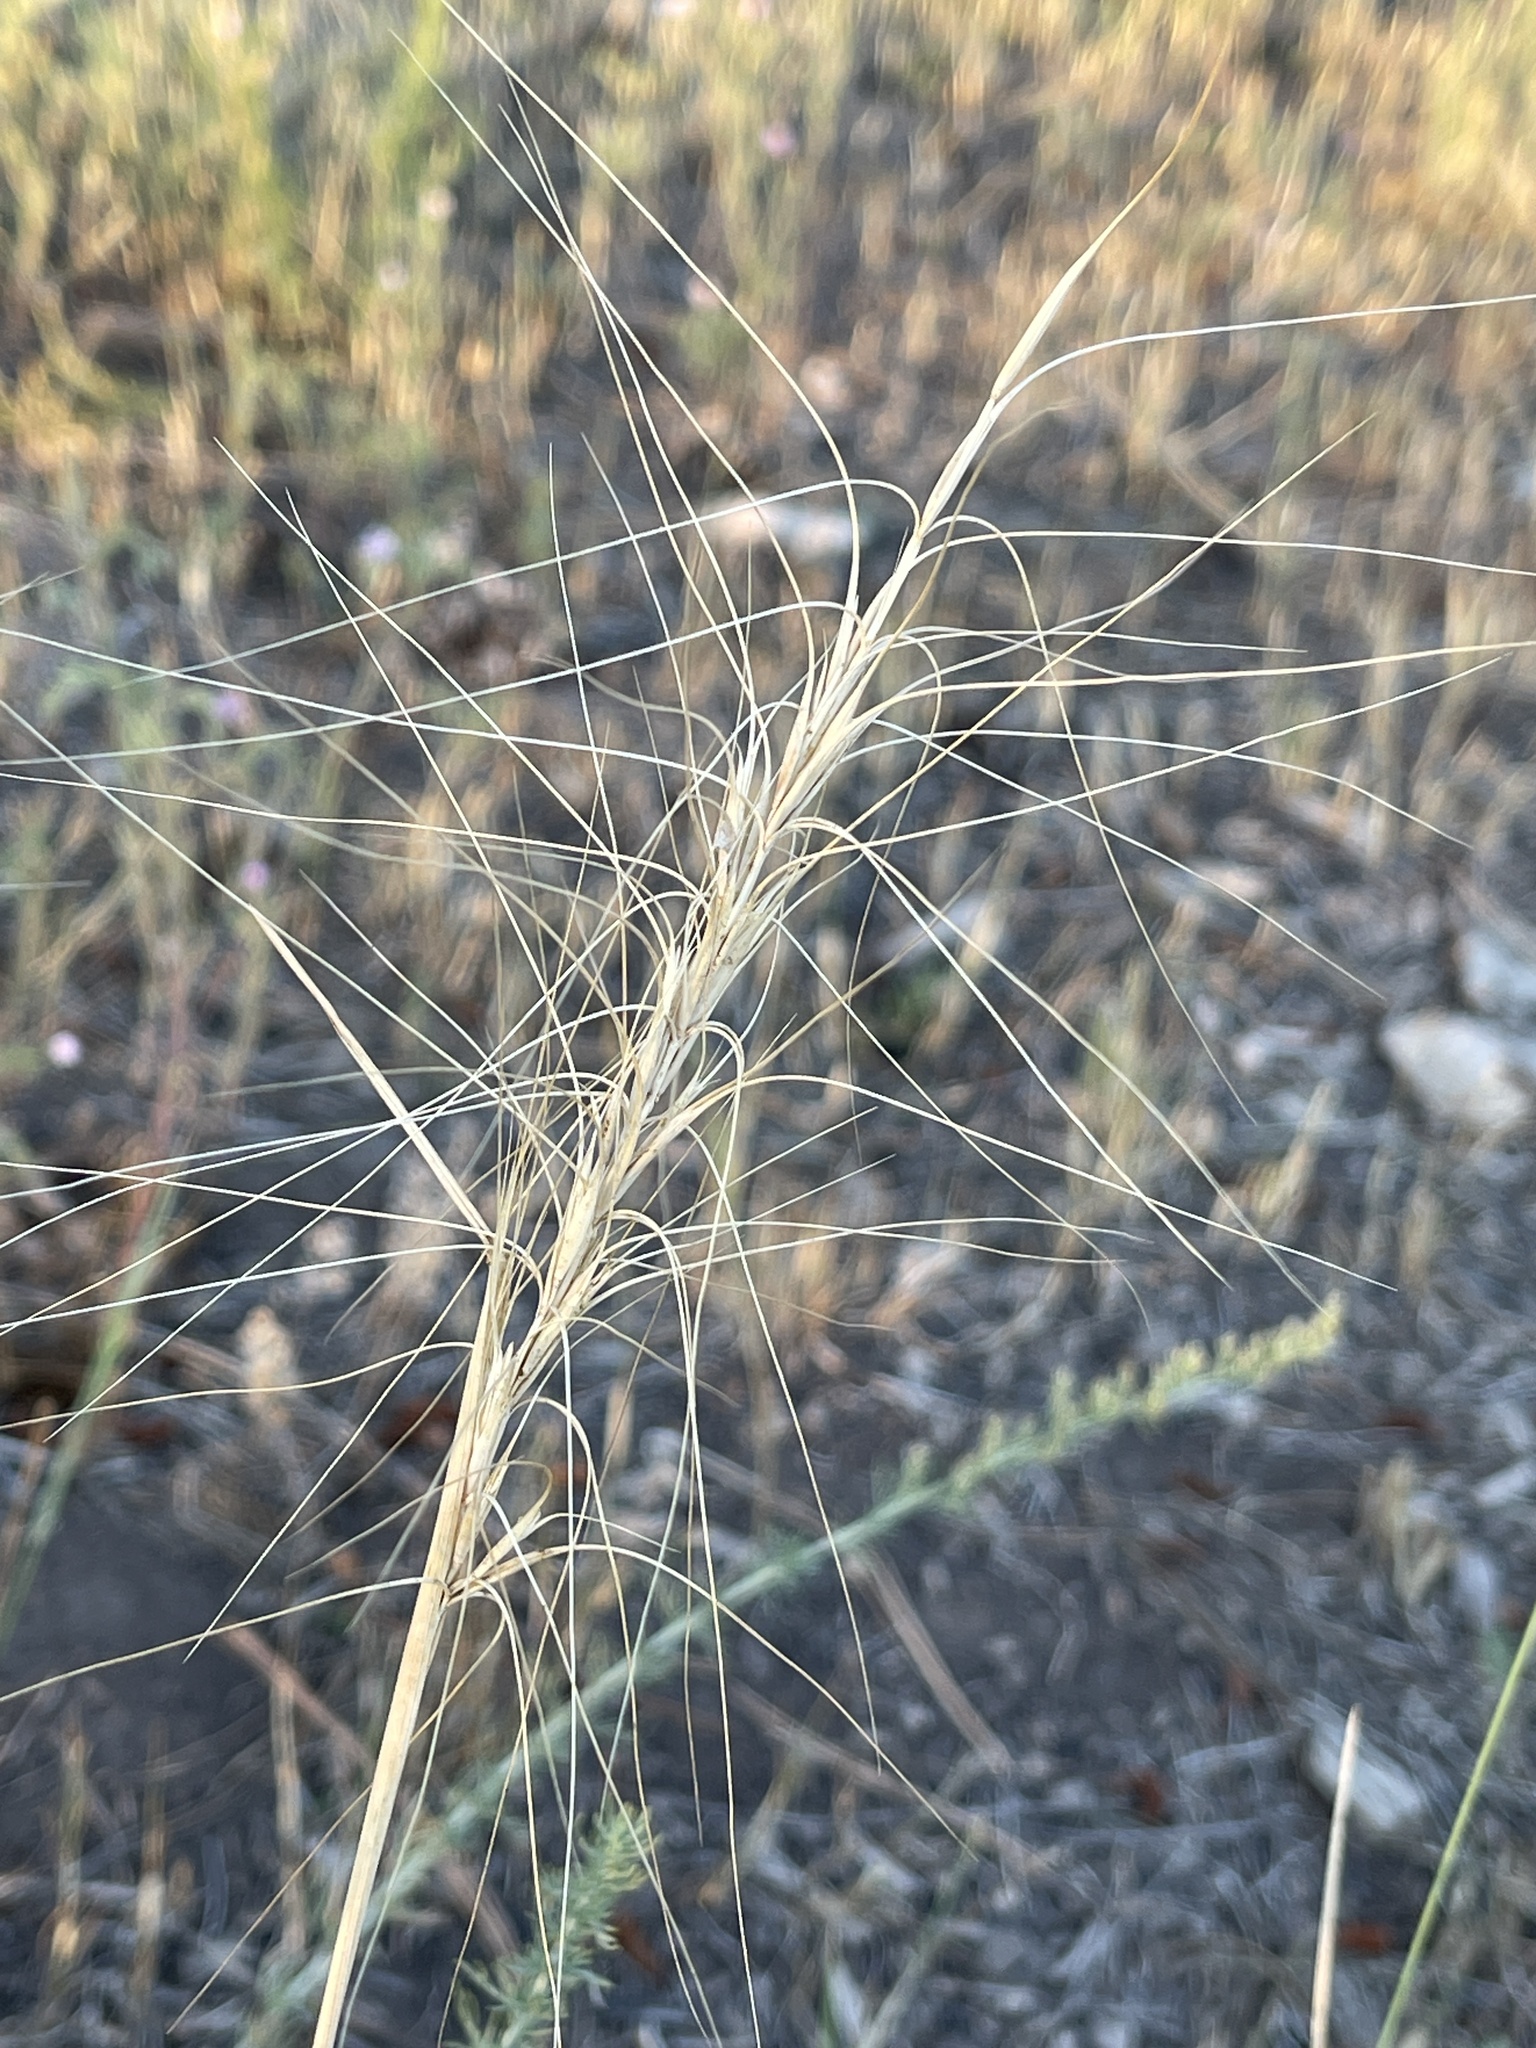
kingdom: Plantae
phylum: Tracheophyta
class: Liliopsida
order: Poales
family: Poaceae
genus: Elymus
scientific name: Elymus elymoides
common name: Bottlebrush squirreltail
